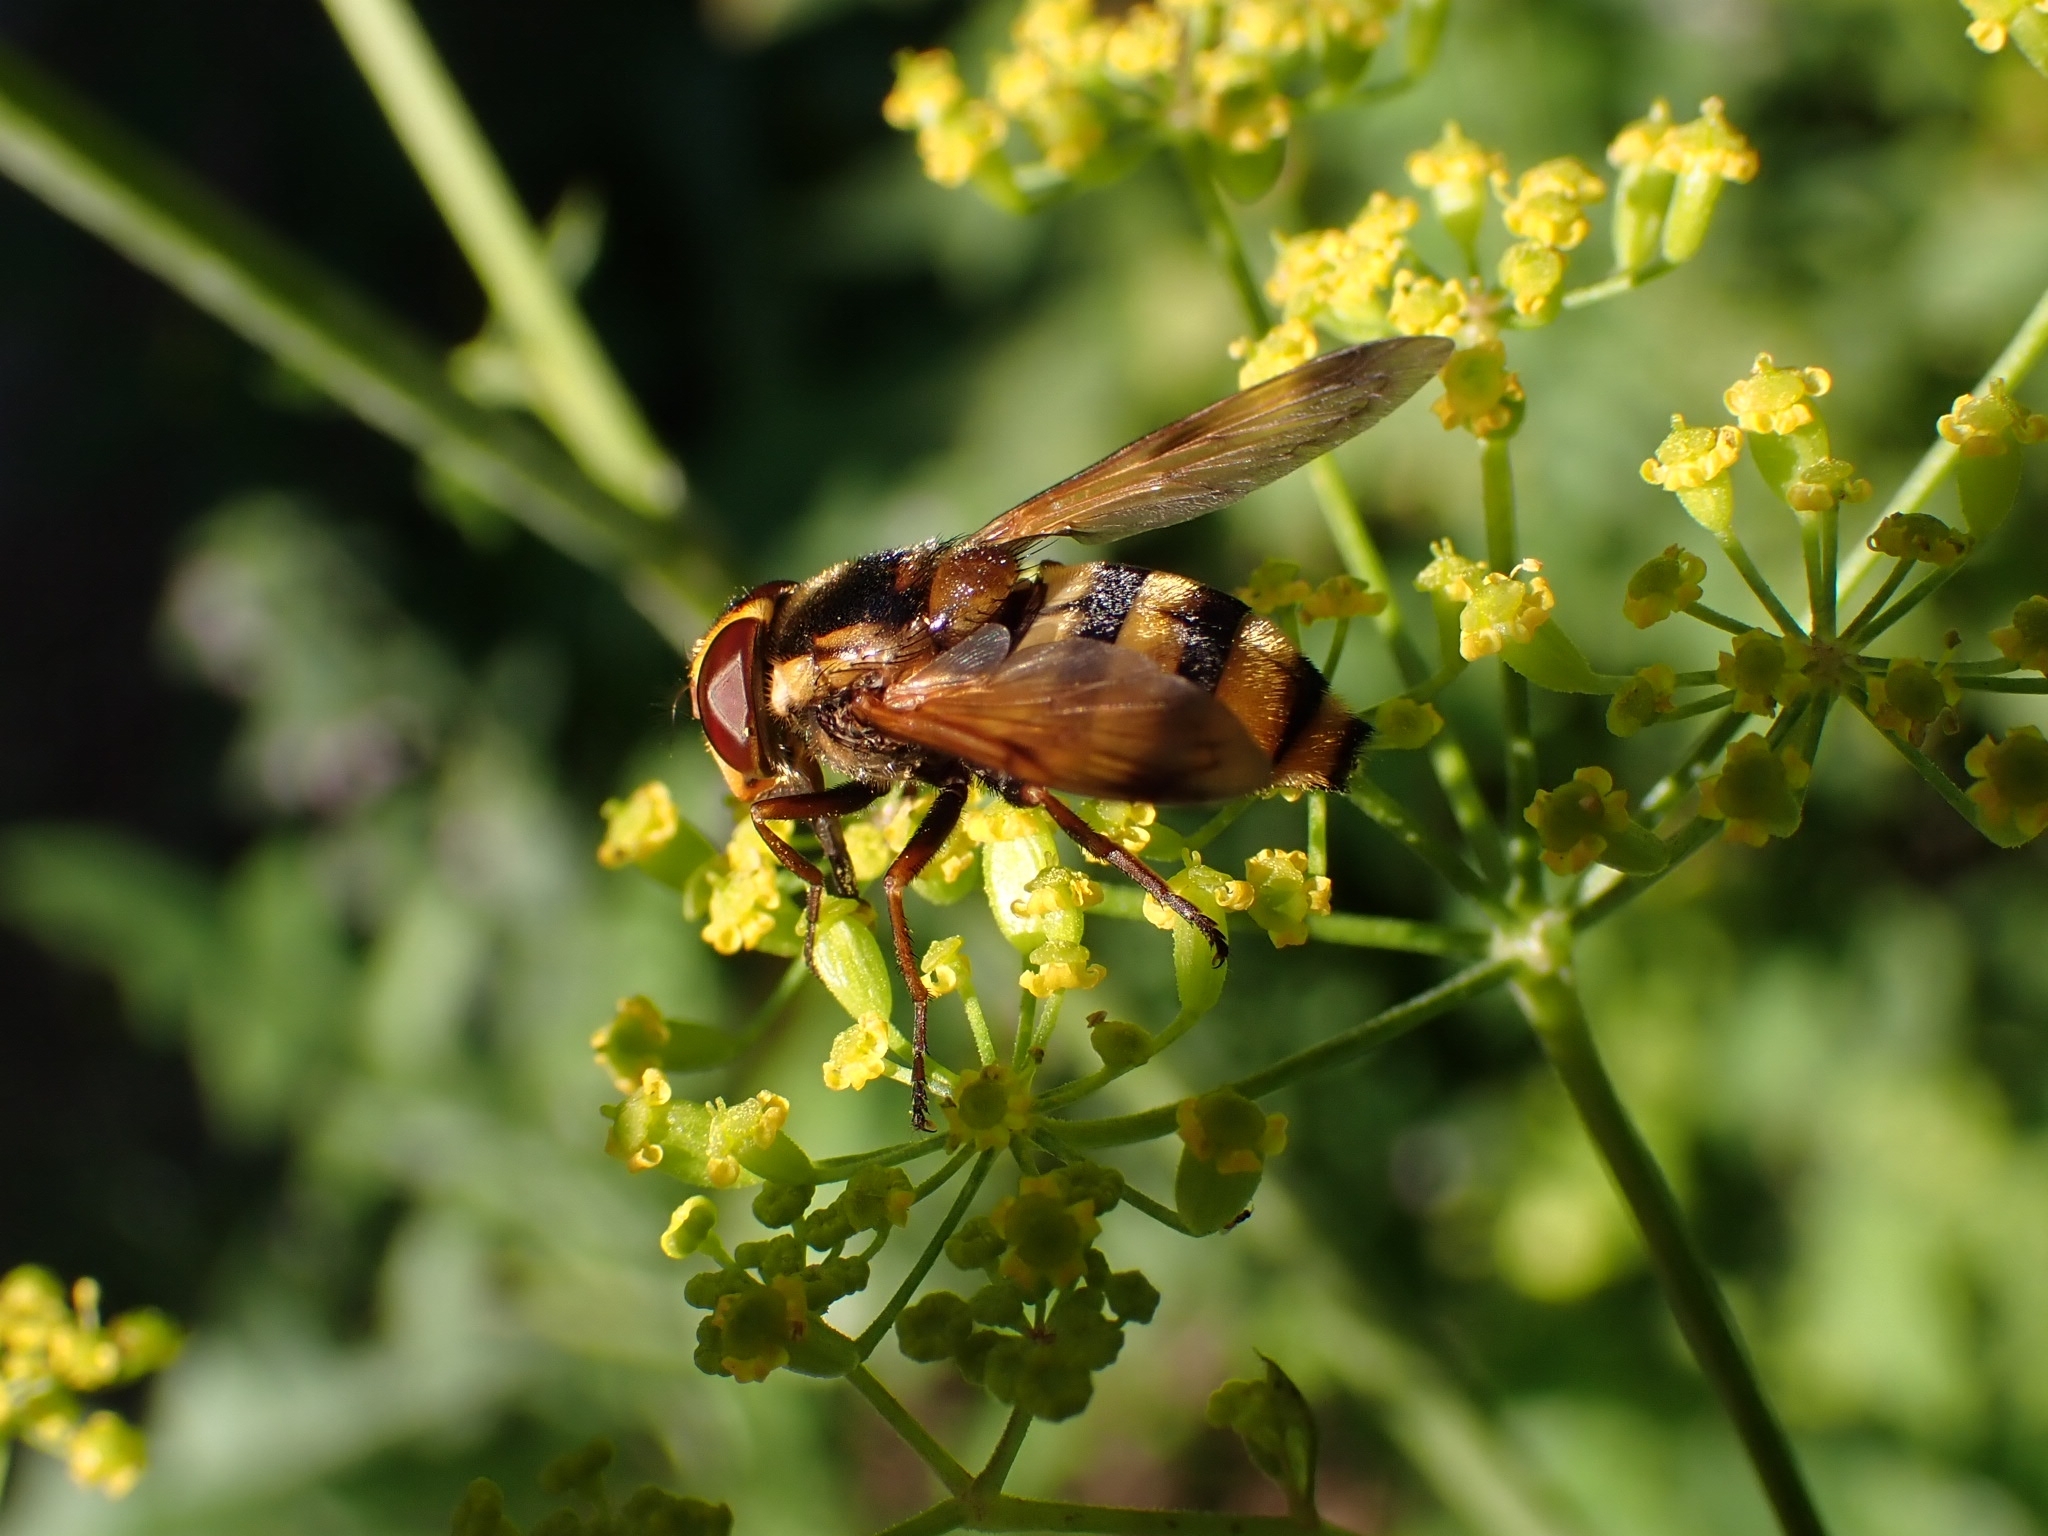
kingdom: Animalia
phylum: Arthropoda
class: Insecta
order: Diptera
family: Syrphidae
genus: Volucella
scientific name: Volucella inanis
